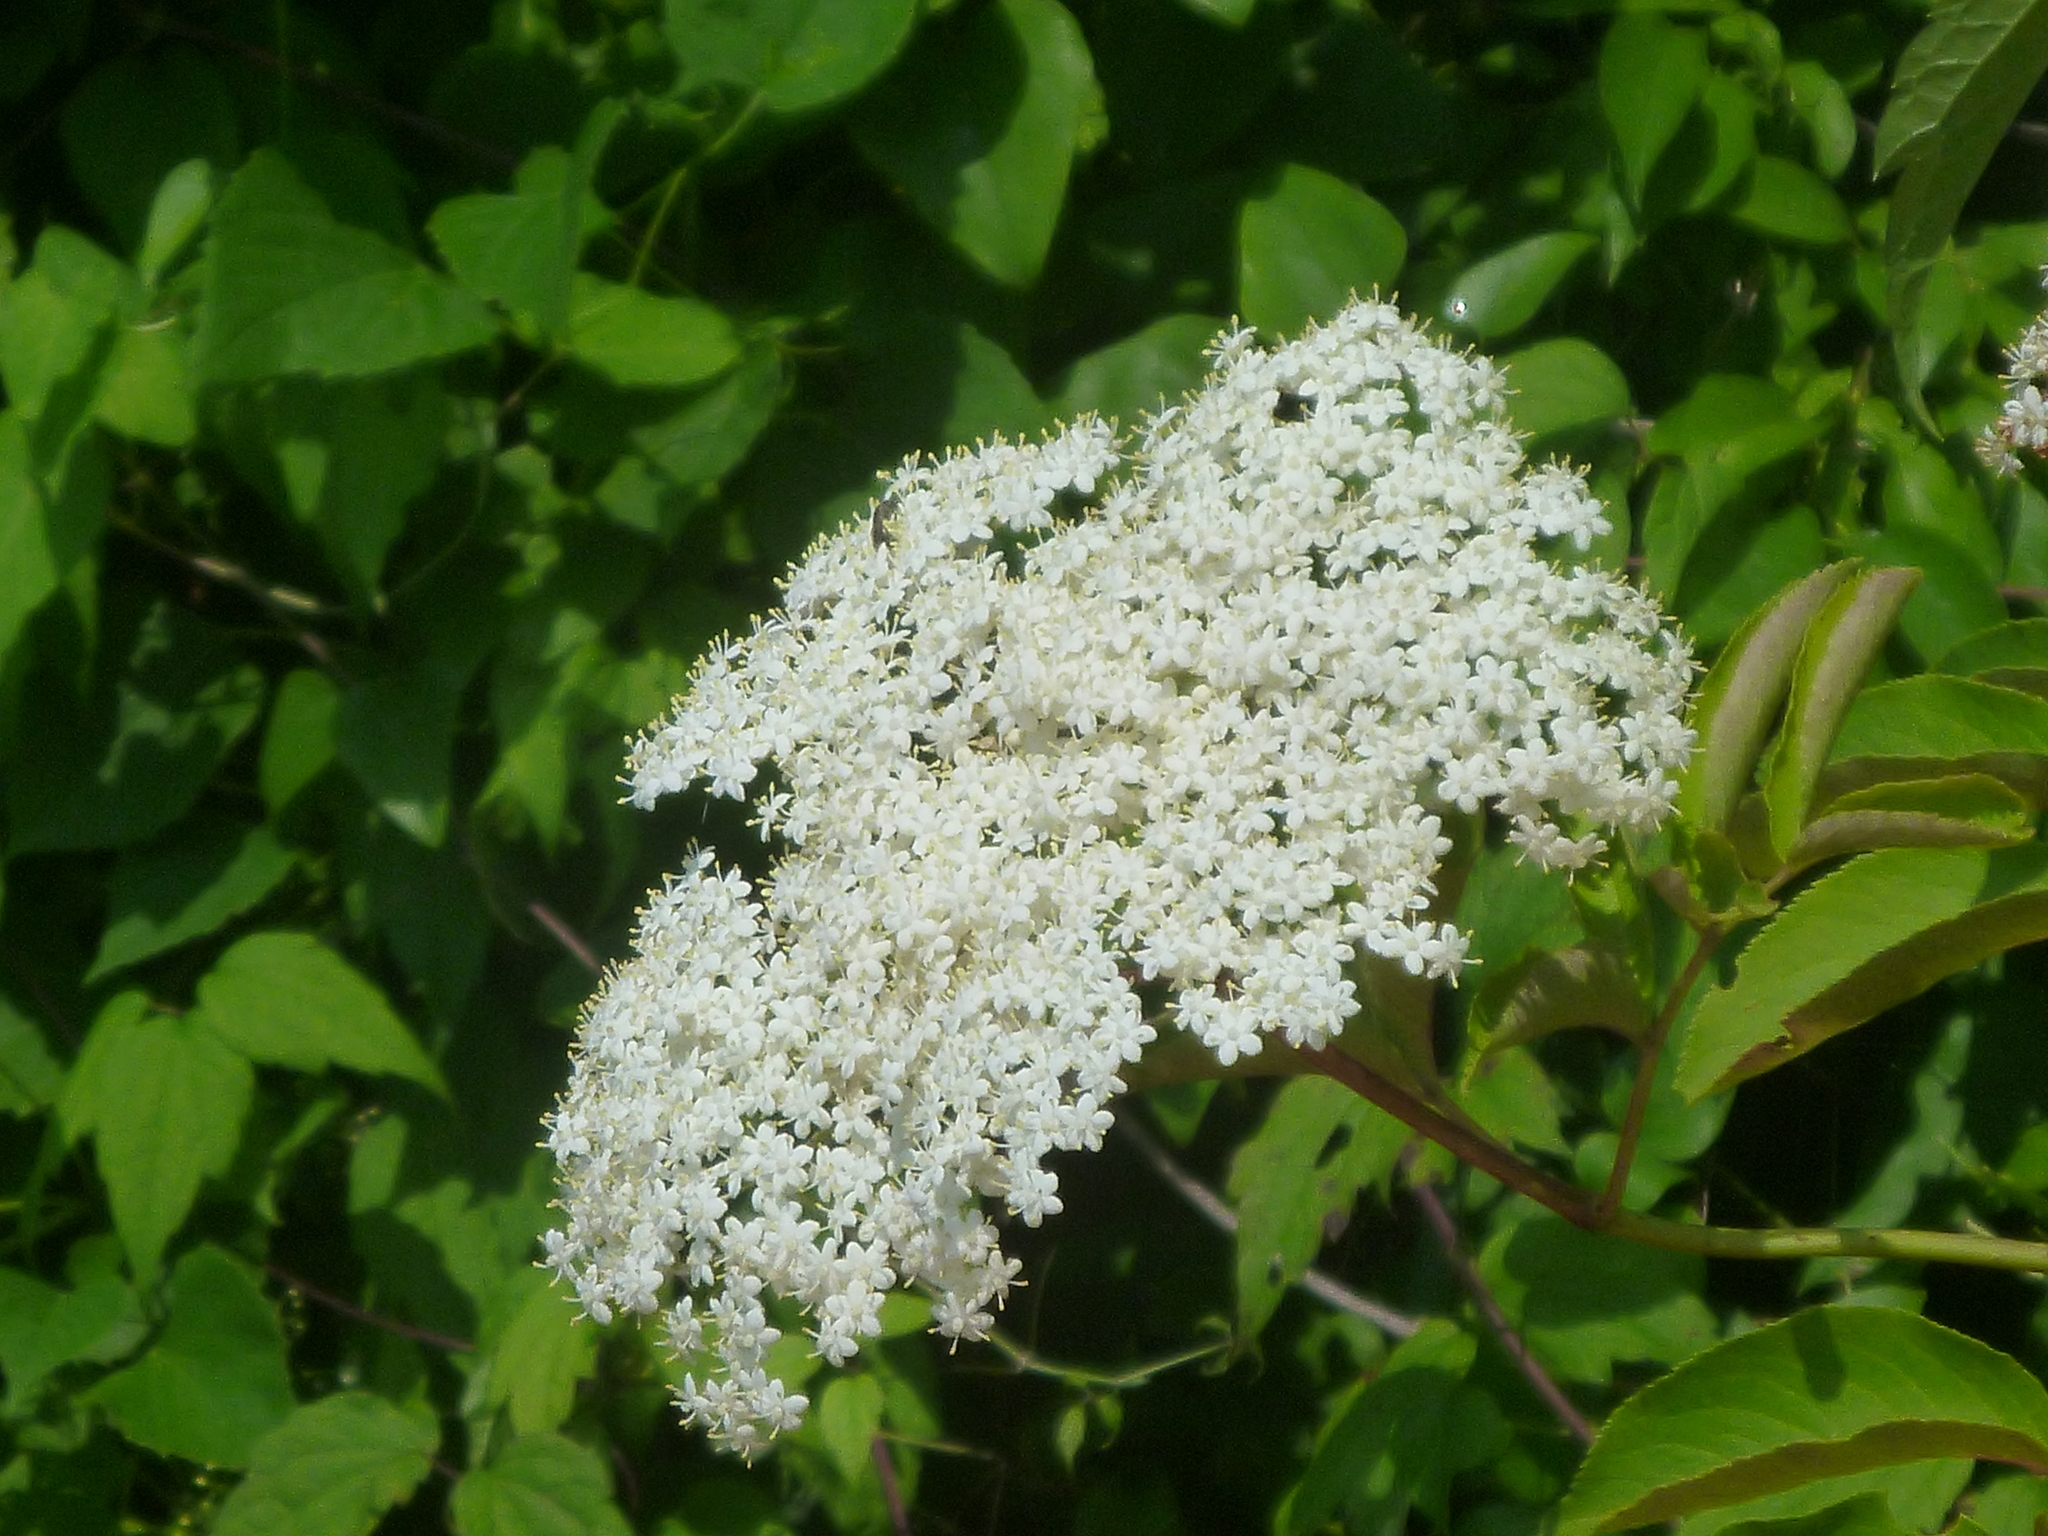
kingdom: Plantae
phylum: Tracheophyta
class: Magnoliopsida
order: Dipsacales
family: Viburnaceae
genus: Sambucus
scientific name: Sambucus canadensis
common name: American elder
